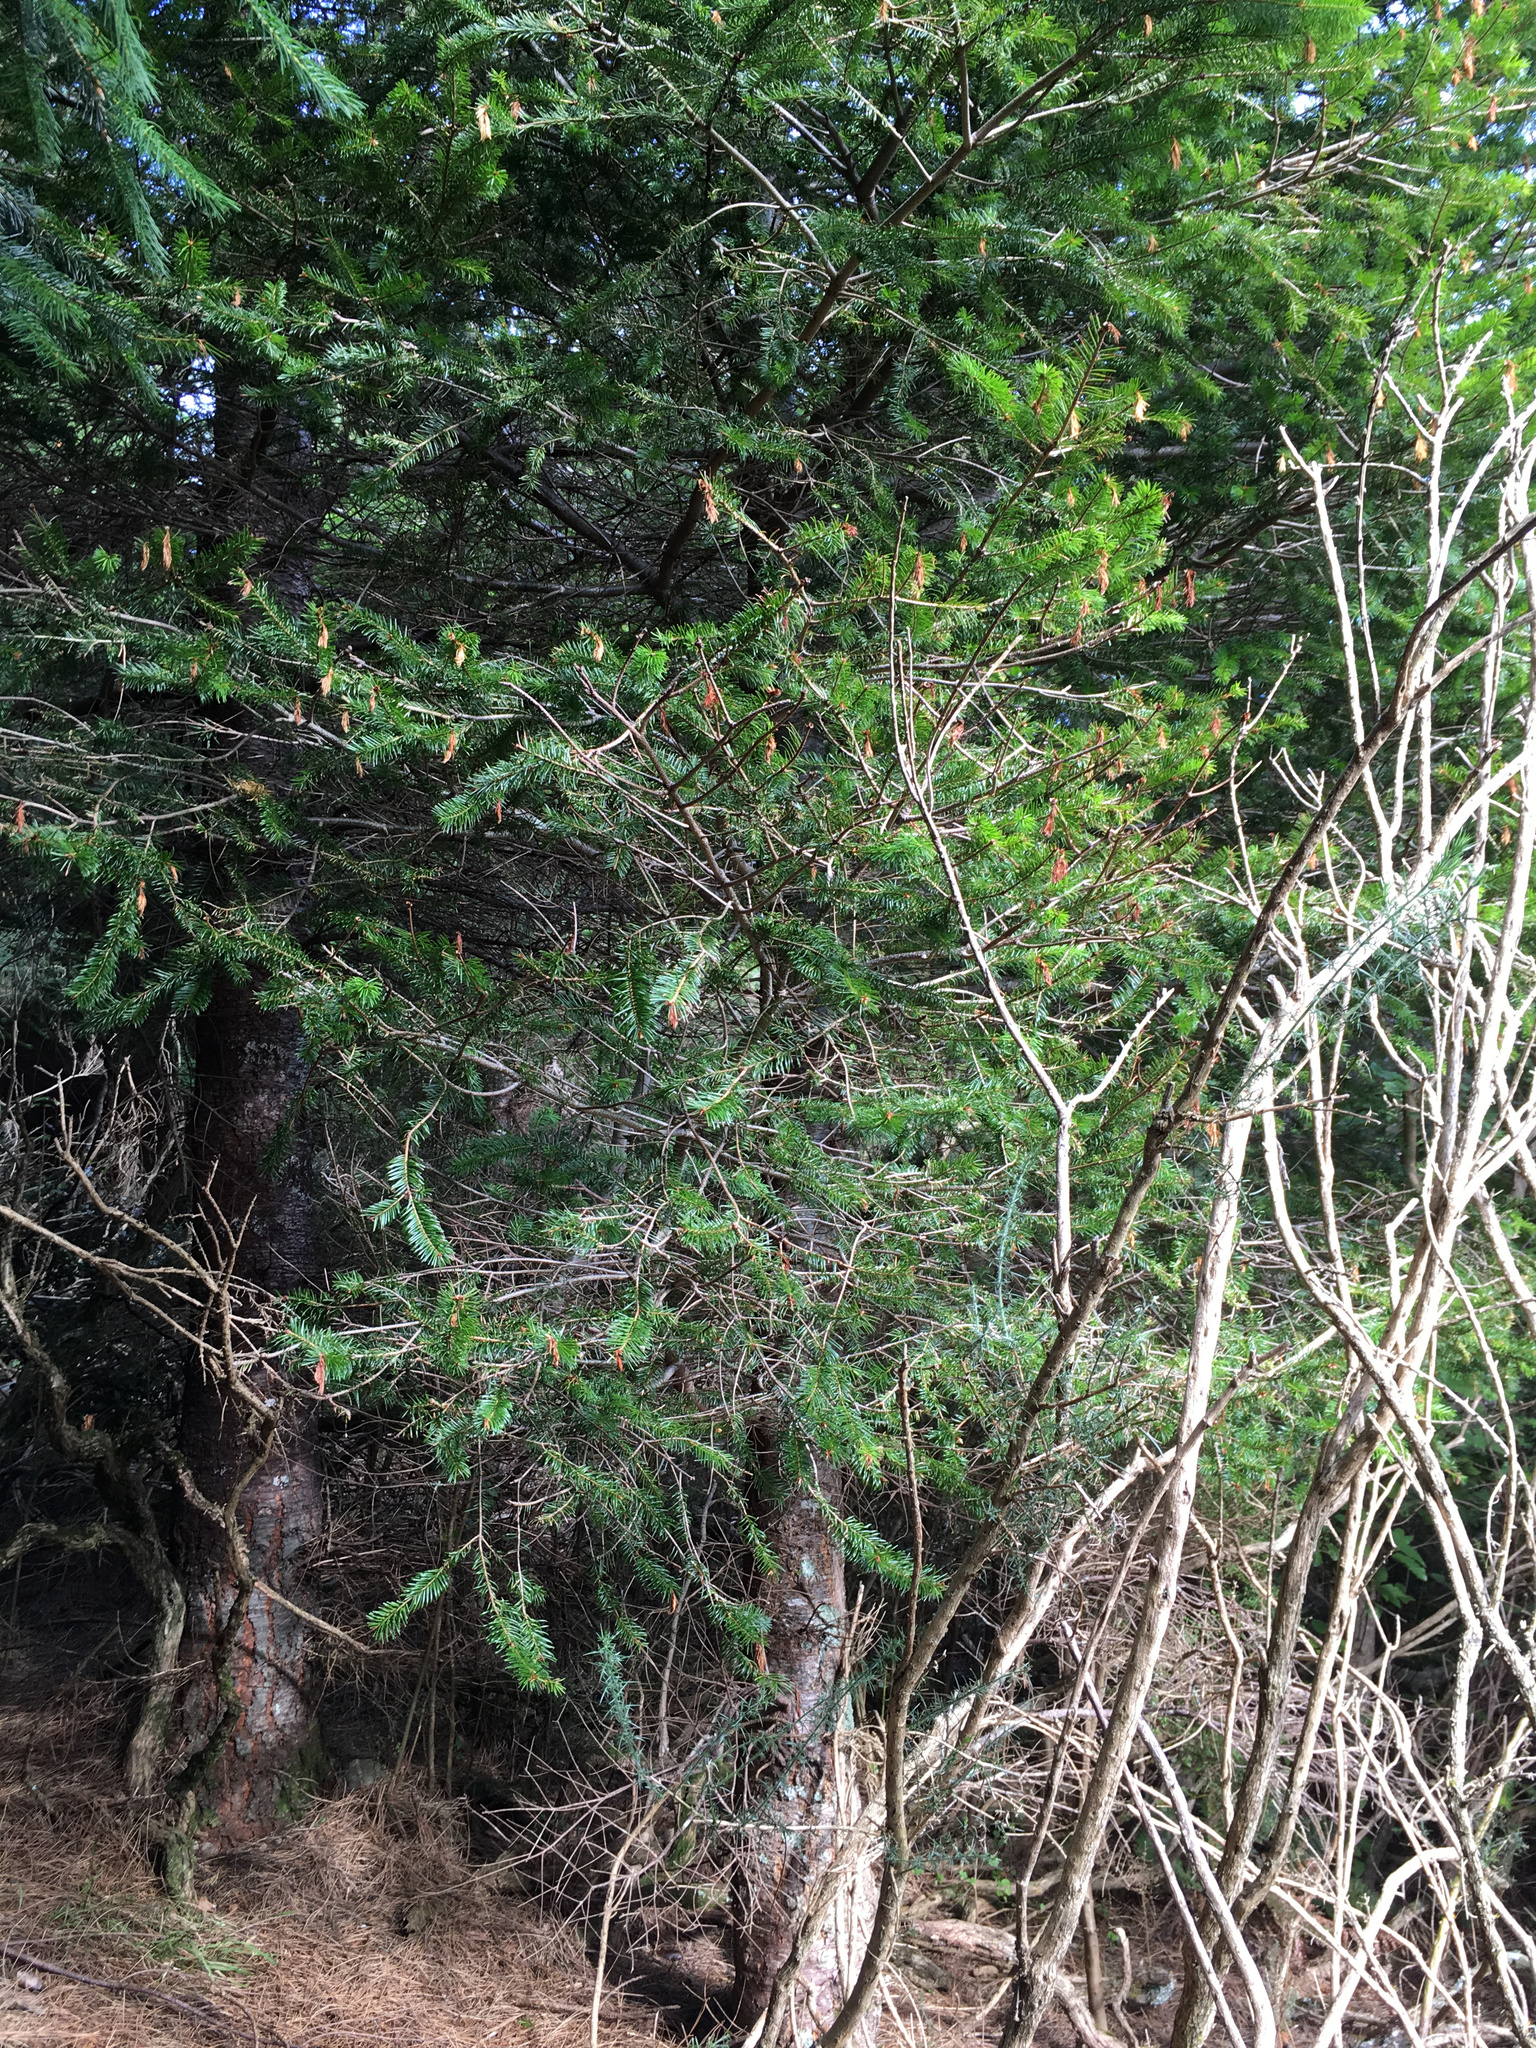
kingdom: Plantae
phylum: Tracheophyta
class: Pinopsida
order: Pinales
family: Pinaceae
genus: Pseudotsuga
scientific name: Pseudotsuga menziesii
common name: Douglas fir
